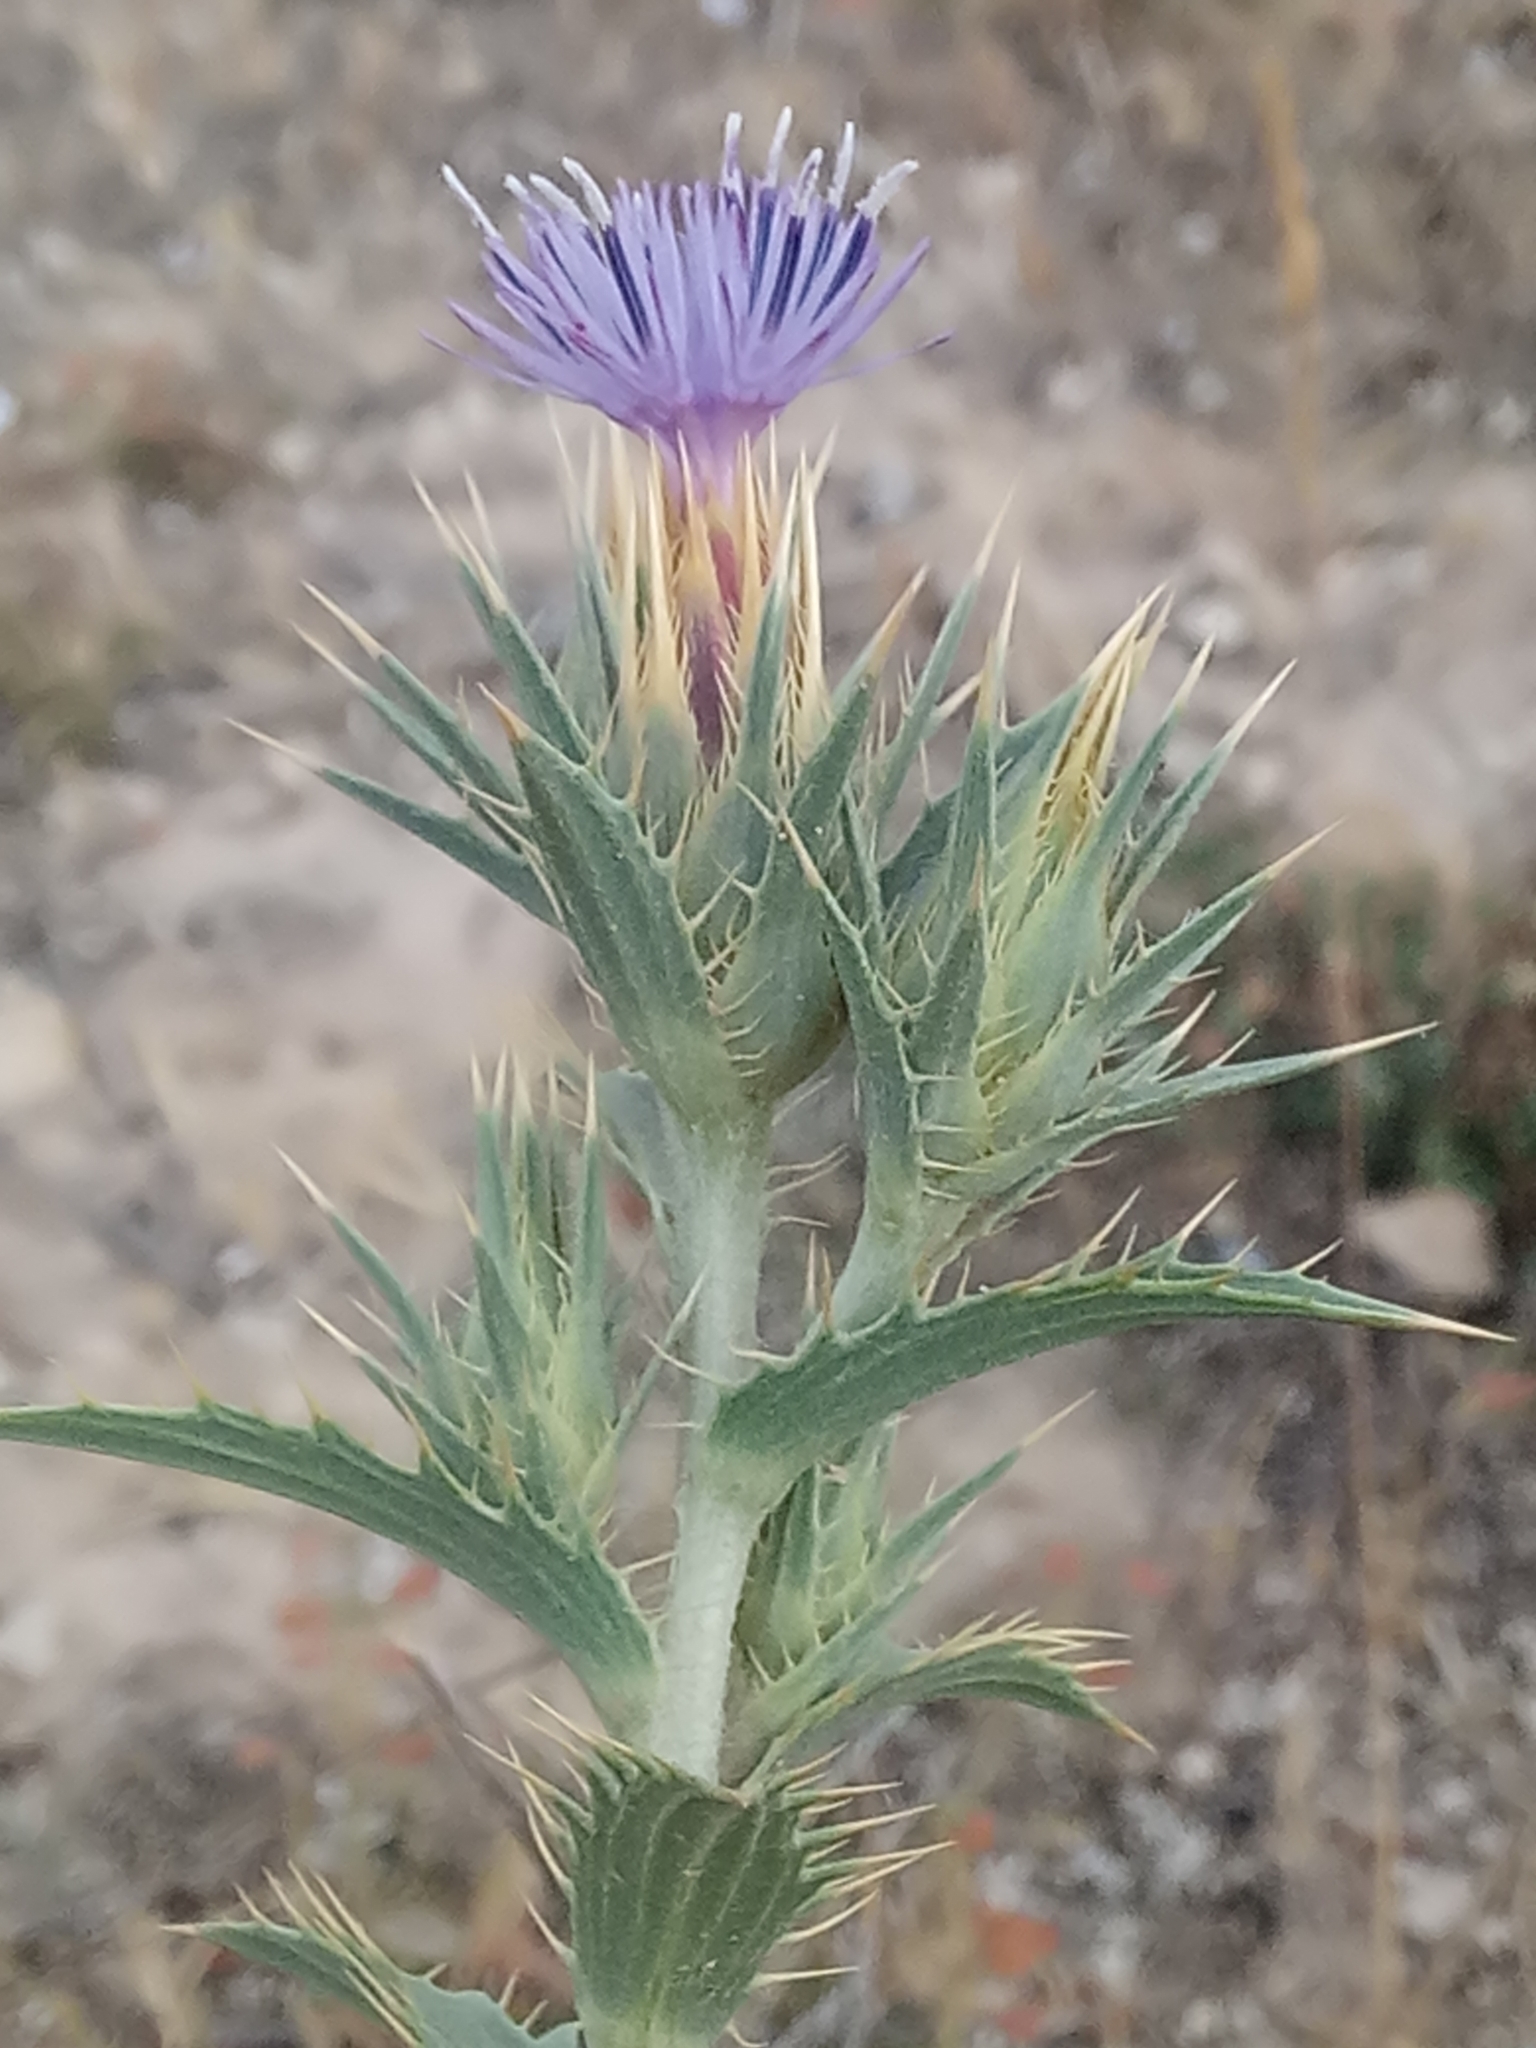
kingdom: Plantae
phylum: Tracheophyta
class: Magnoliopsida
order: Asterales
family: Asteraceae
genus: Carduncellus
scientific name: Carduncellus pectinatus
